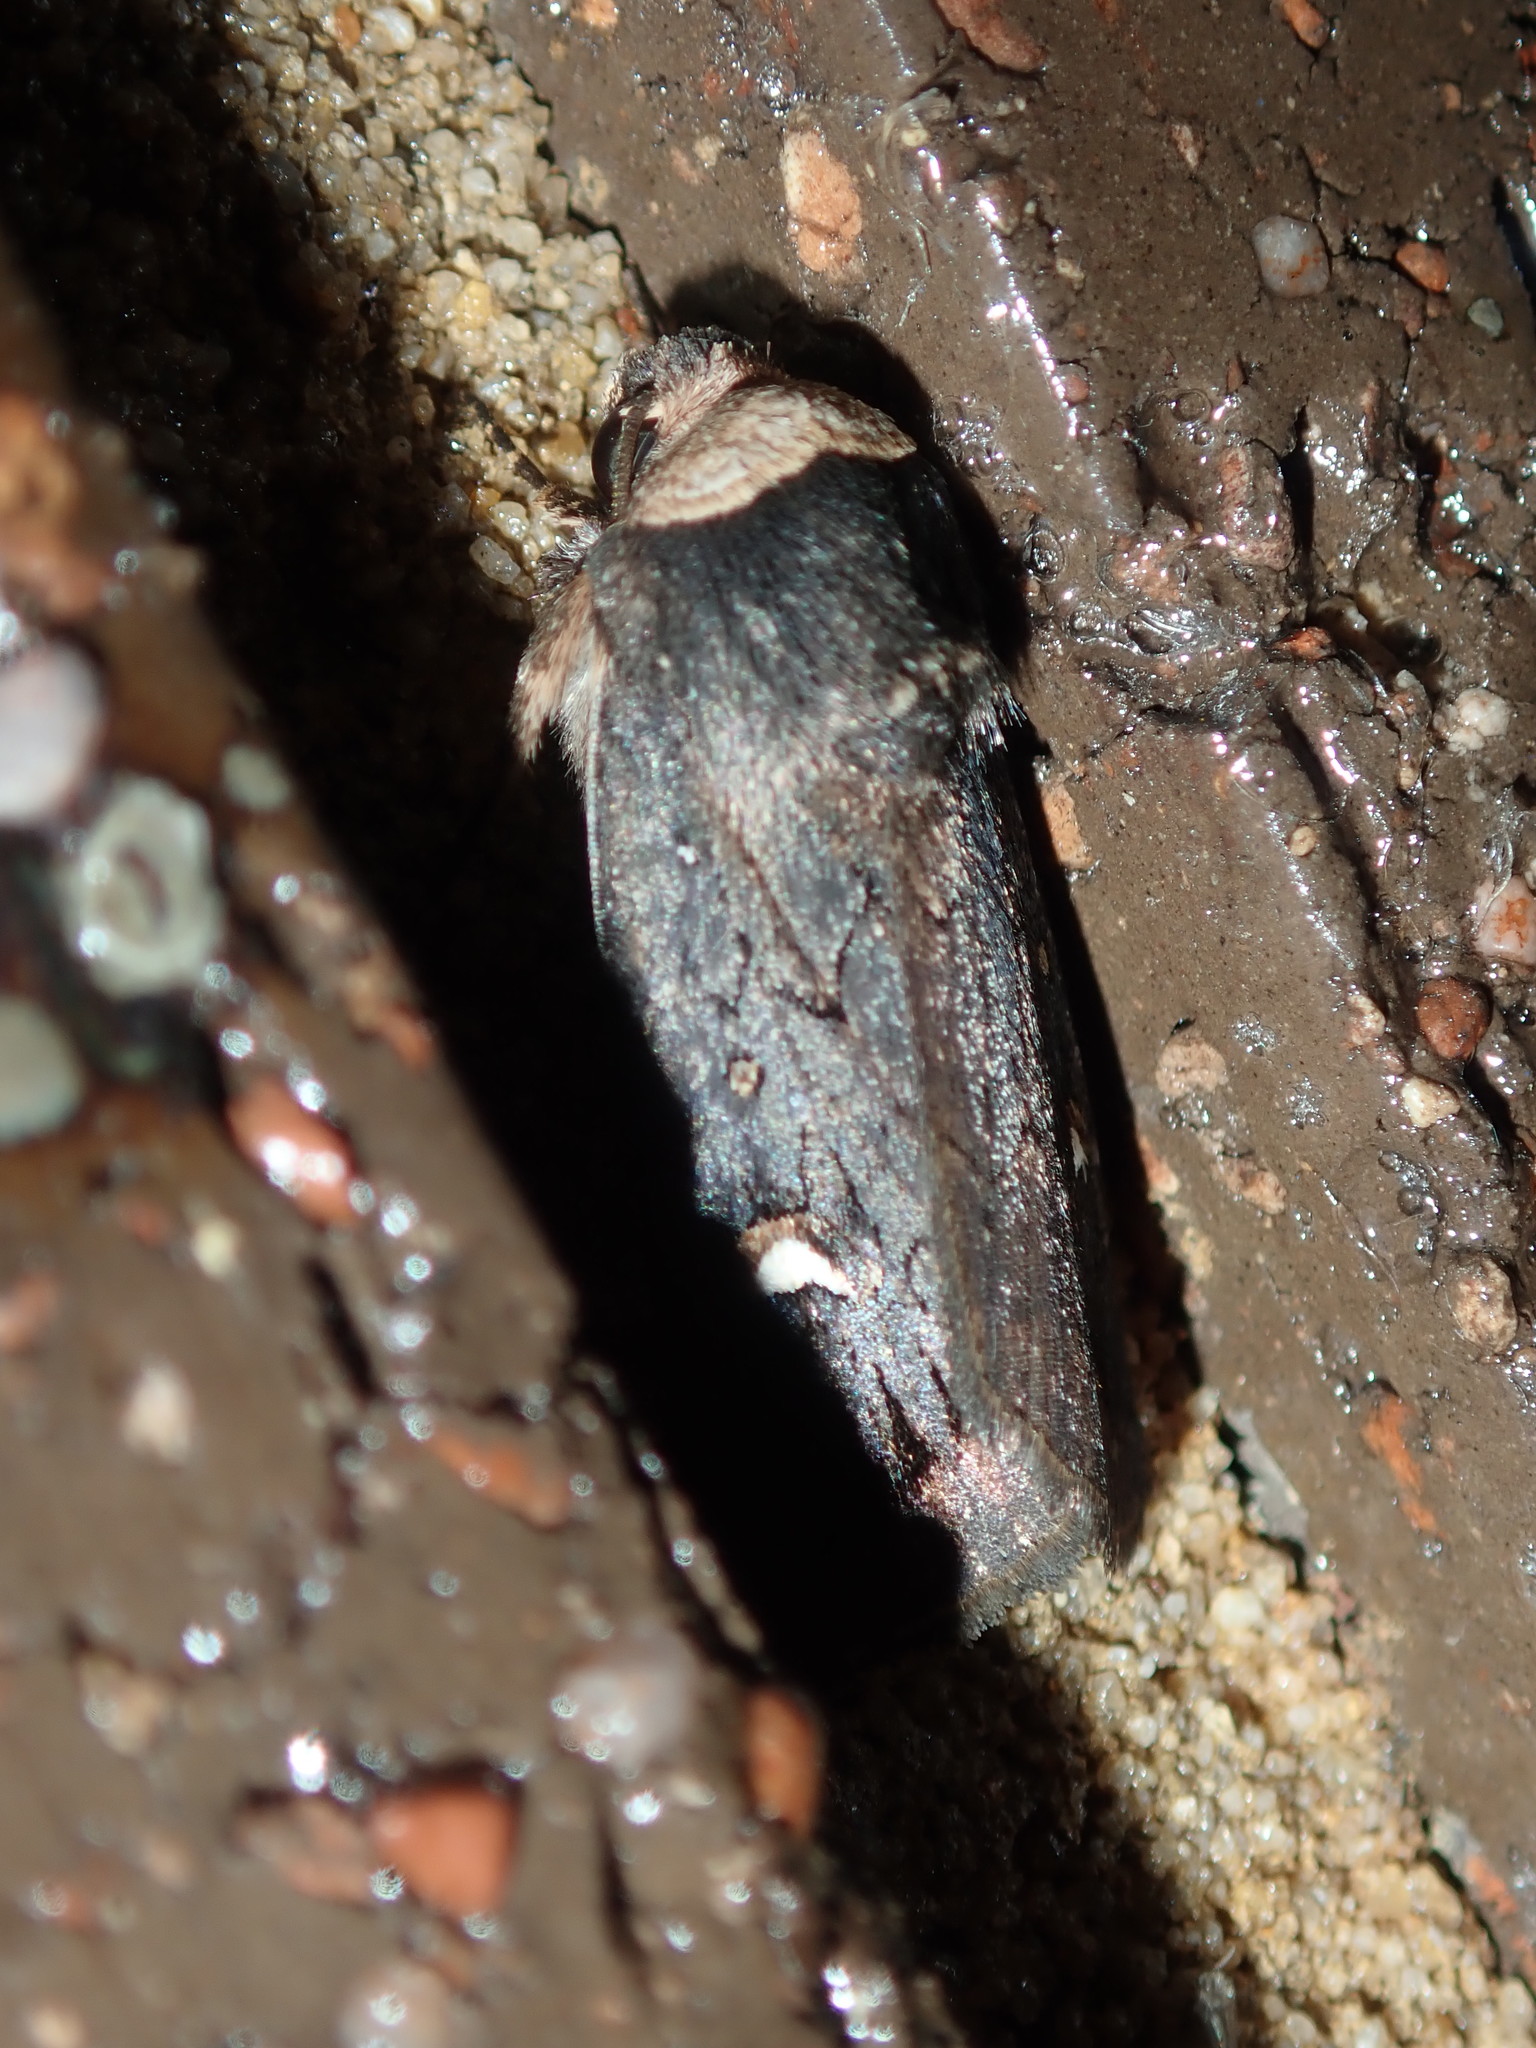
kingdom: Animalia
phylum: Arthropoda
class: Insecta
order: Lepidoptera
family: Noctuidae
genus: Proteuxoa
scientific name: Proteuxoa testaceicollis
